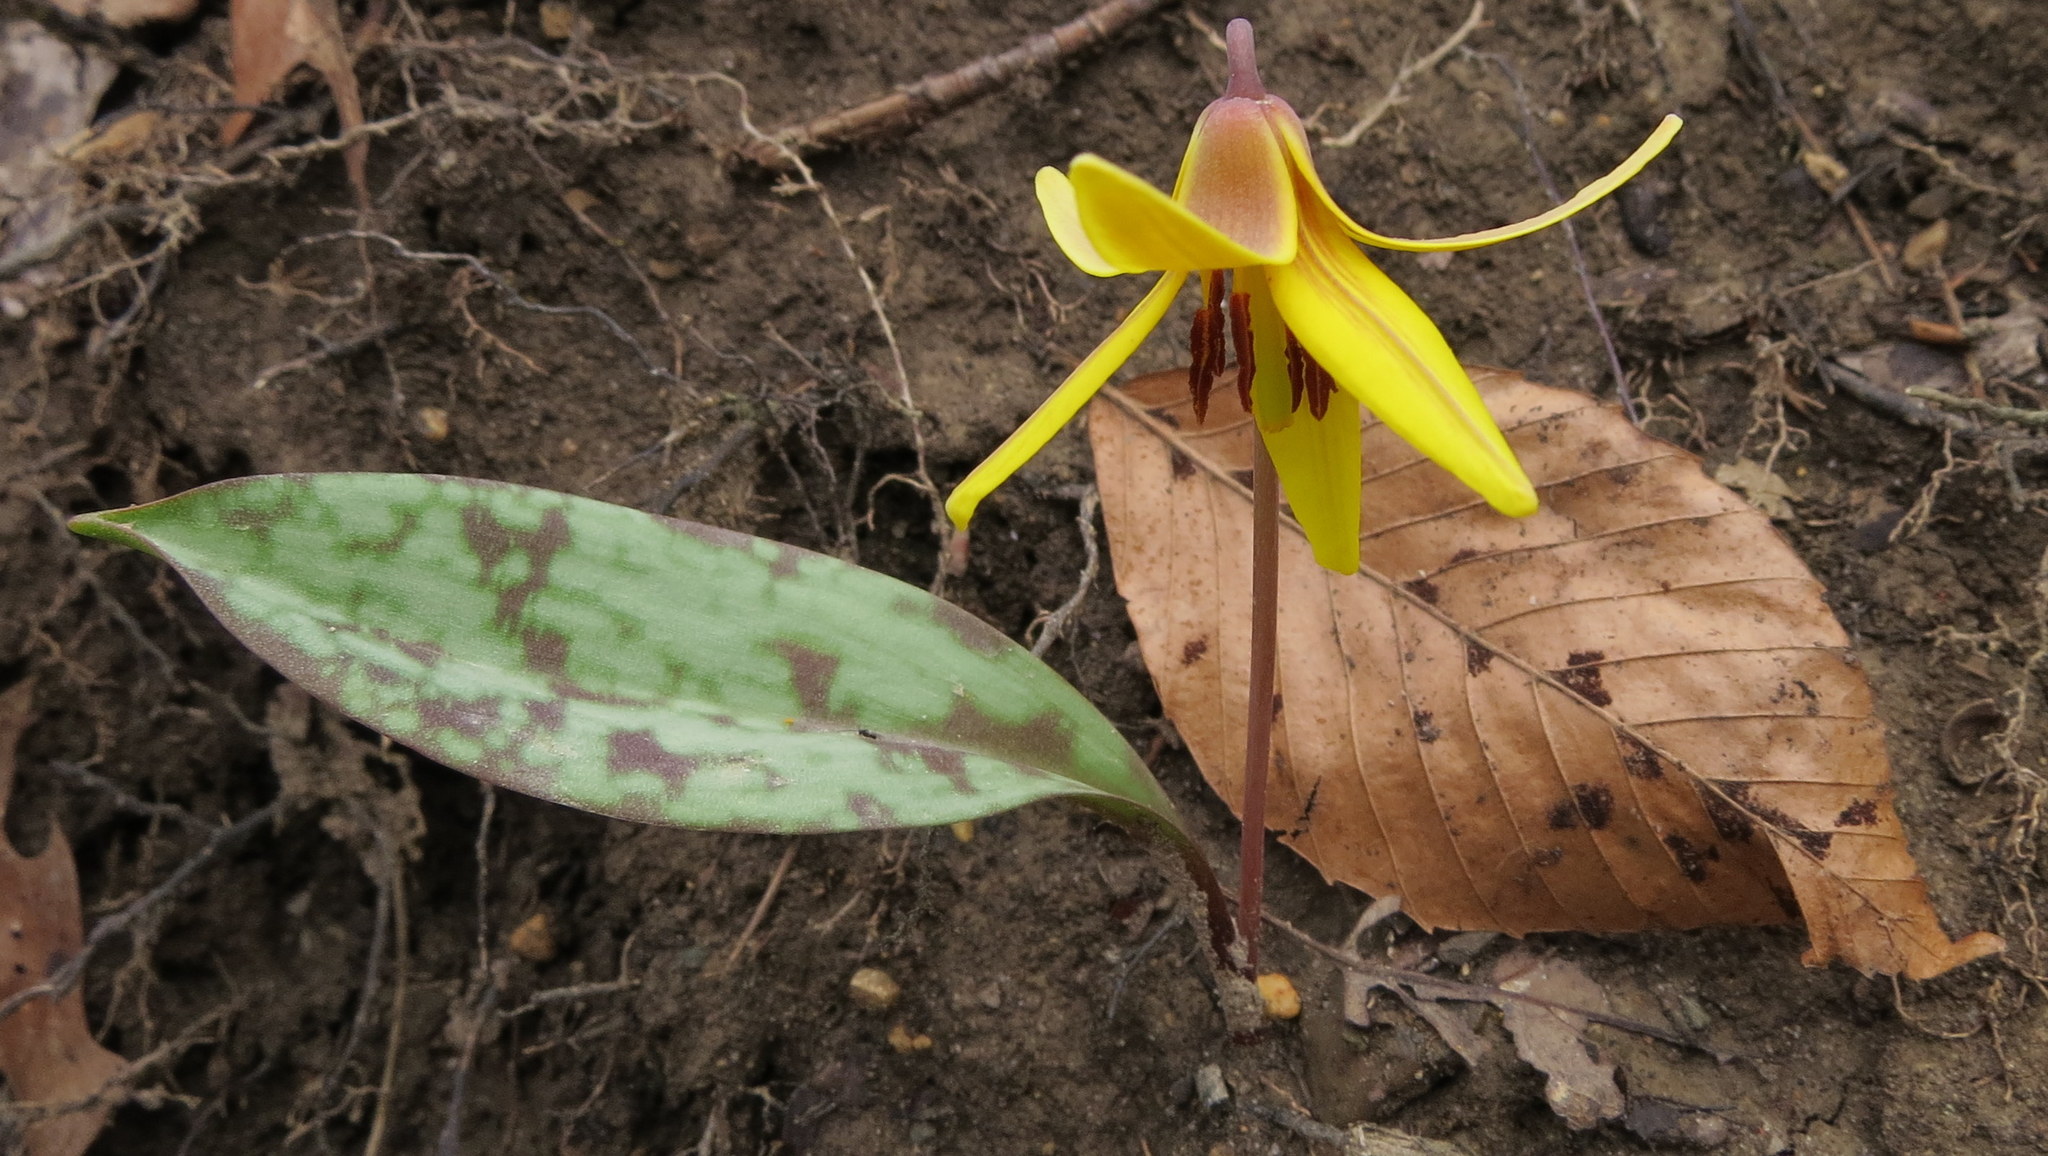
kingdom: Plantae
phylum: Tracheophyta
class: Liliopsida
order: Liliales
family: Liliaceae
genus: Erythronium
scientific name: Erythronium americanum
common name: Yellow adder's-tongue
